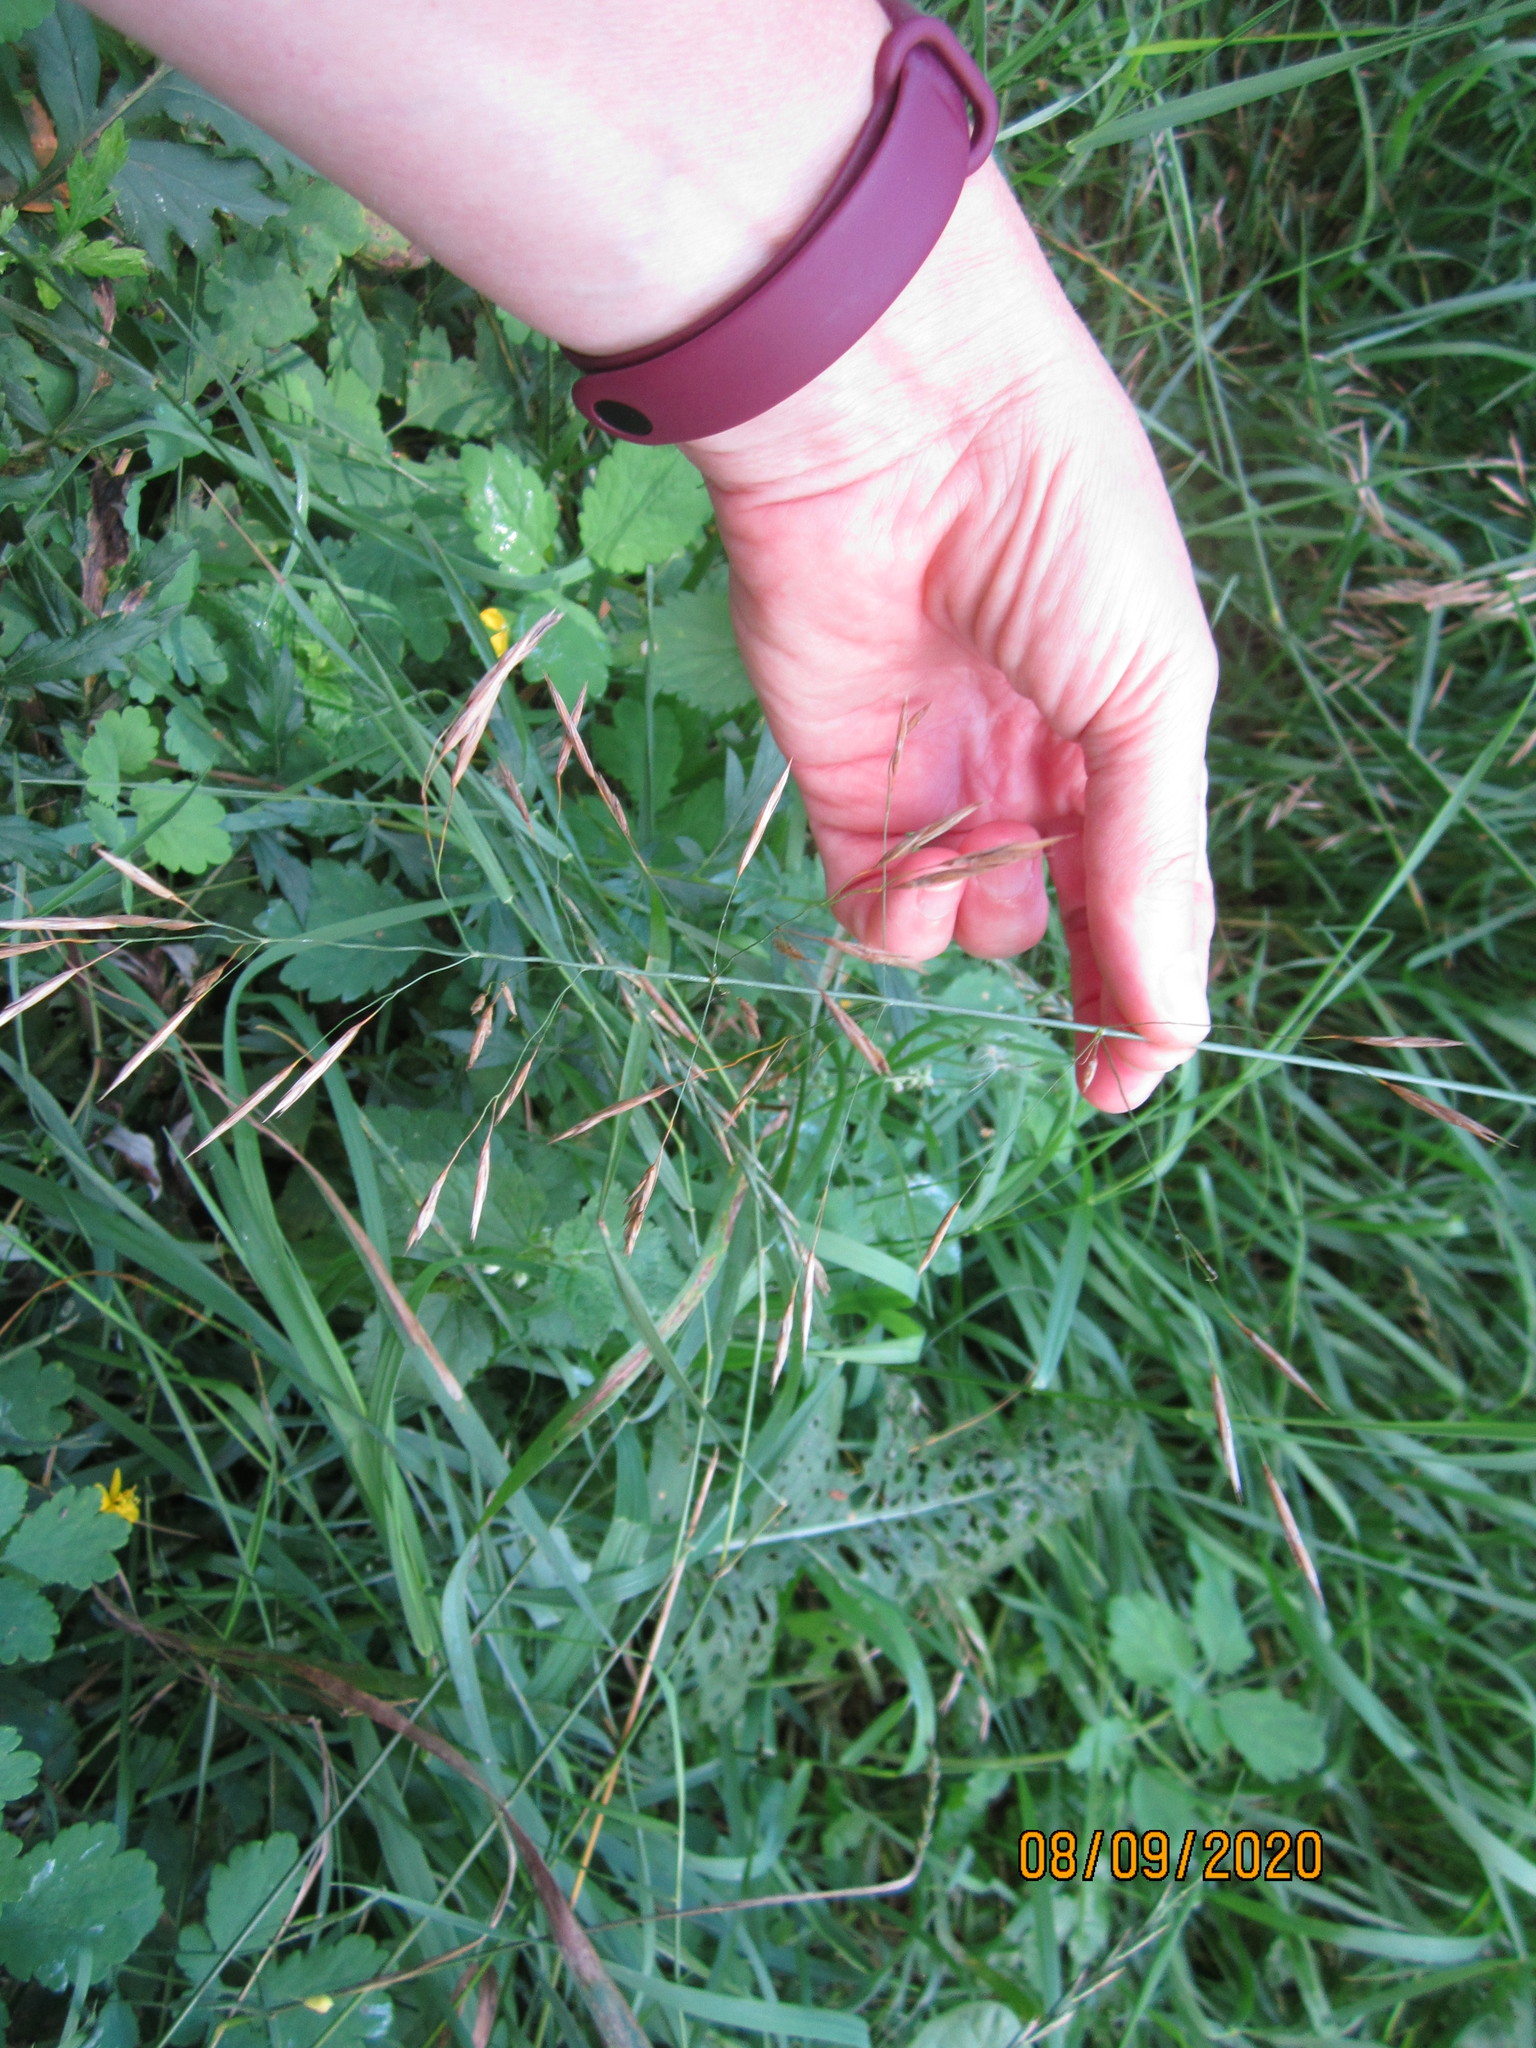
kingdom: Plantae
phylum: Tracheophyta
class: Liliopsida
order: Poales
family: Poaceae
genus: Bromus
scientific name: Bromus inermis
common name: Smooth brome
